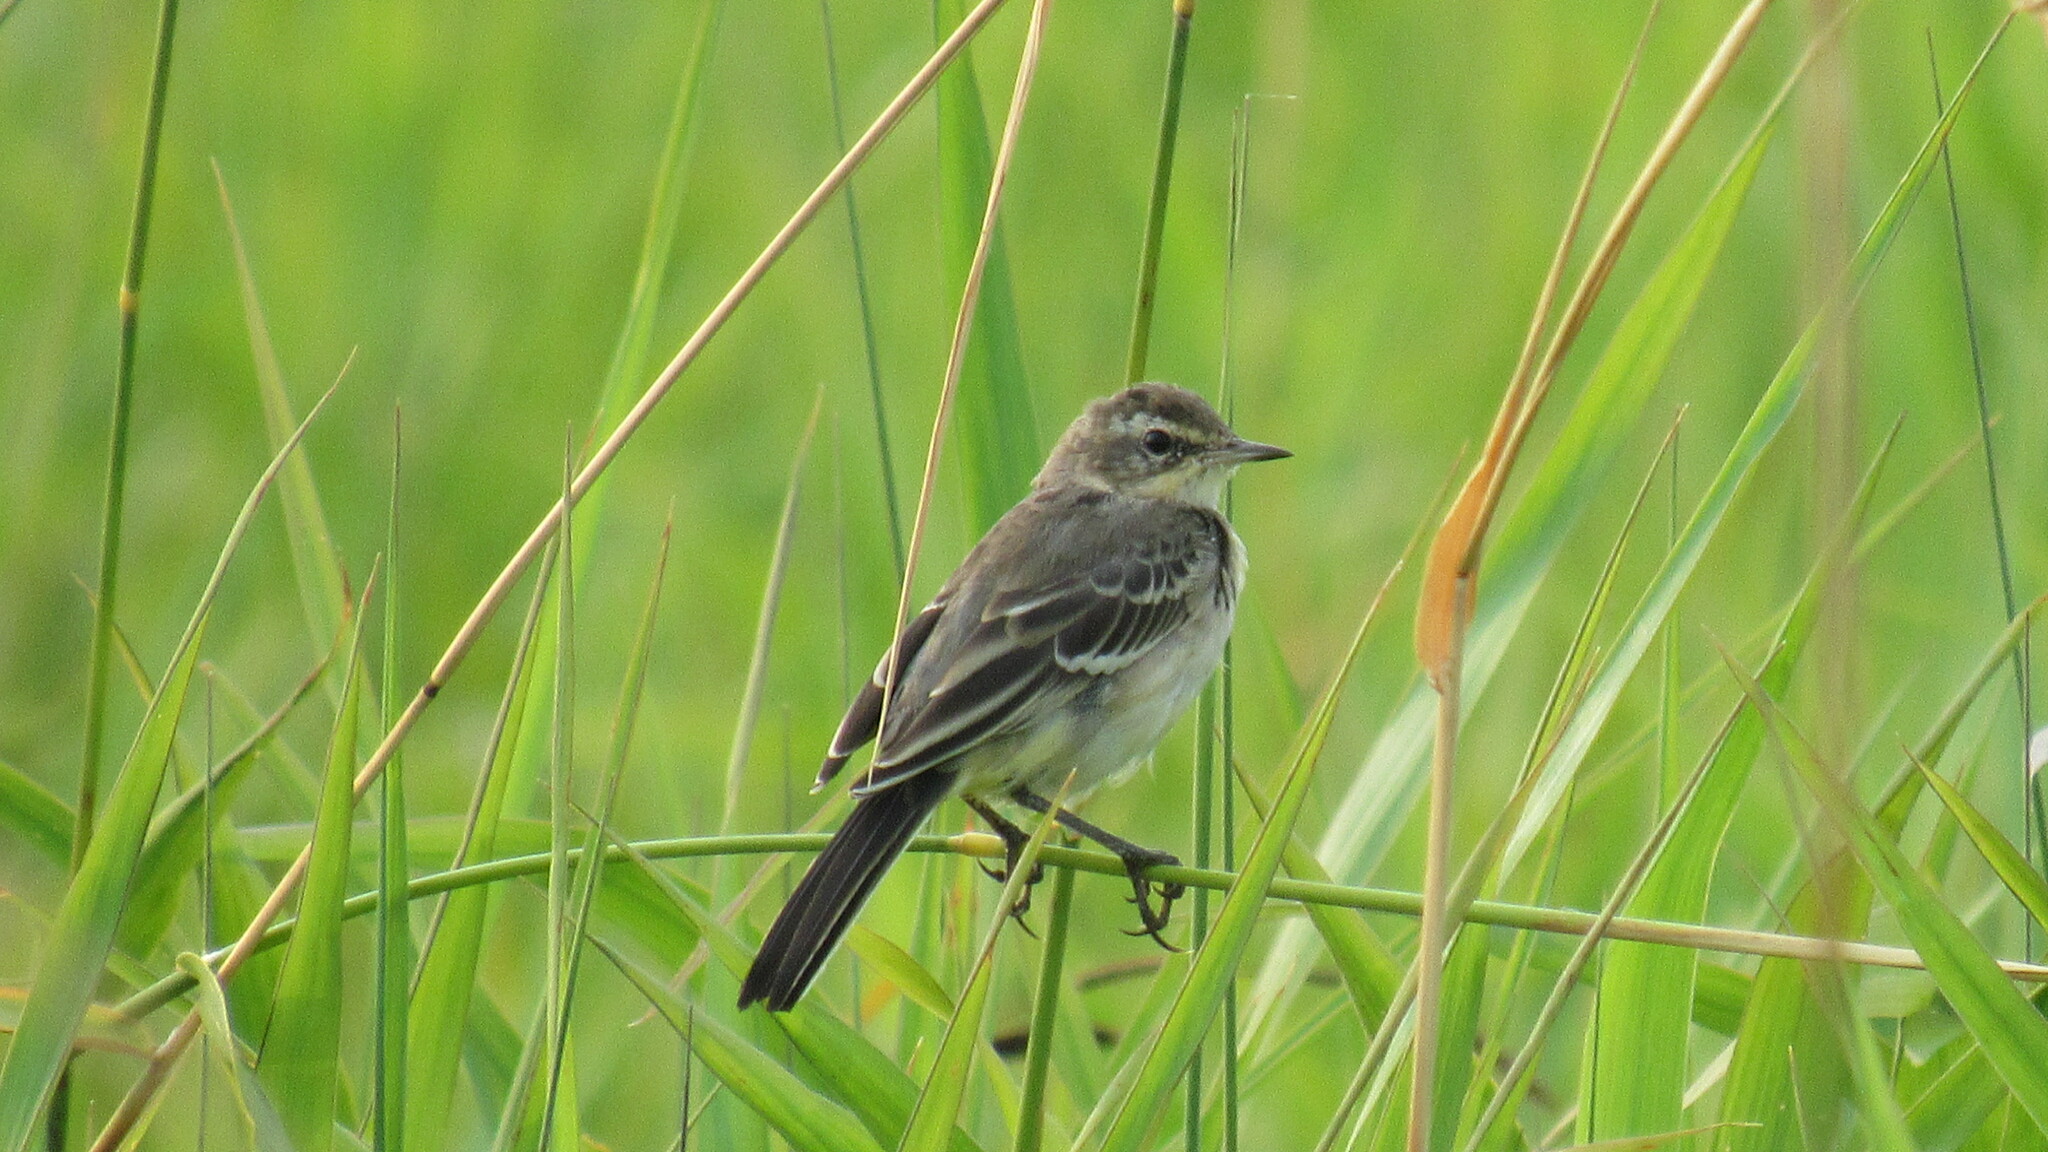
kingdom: Animalia
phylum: Chordata
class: Aves
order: Passeriformes
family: Motacillidae
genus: Motacilla
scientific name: Motacilla flava
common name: Western yellow wagtail
